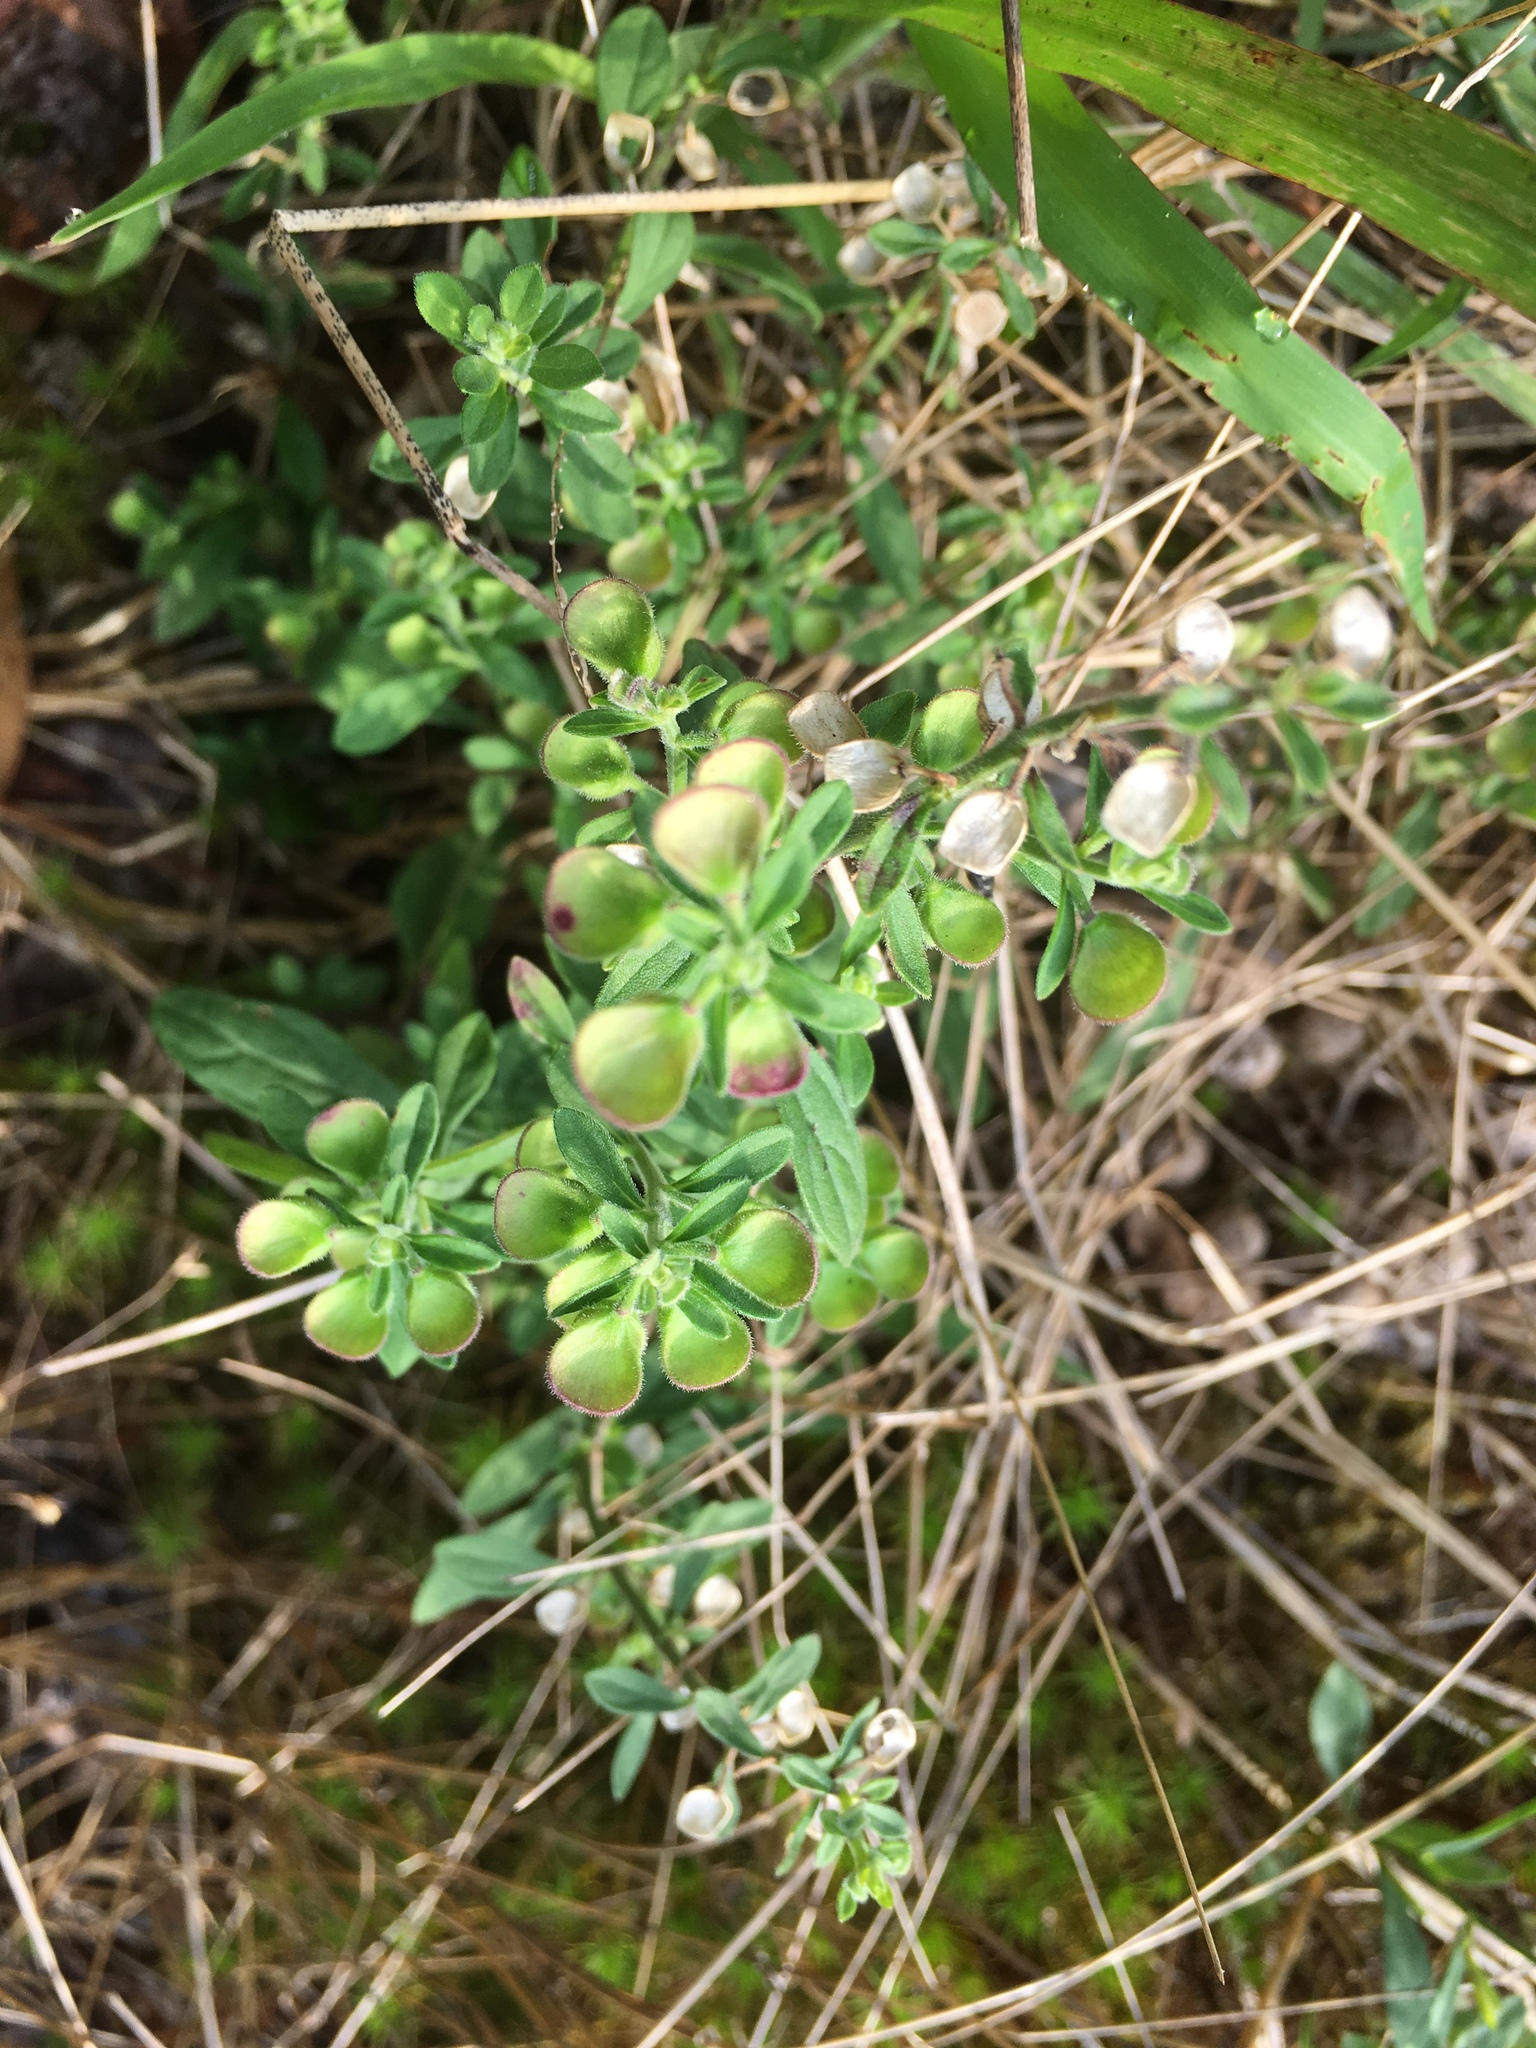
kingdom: Plantae
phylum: Tracheophyta
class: Magnoliopsida
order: Lamiales
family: Lamiaceae
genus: Scutellaria
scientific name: Scutellaria integrifolia
